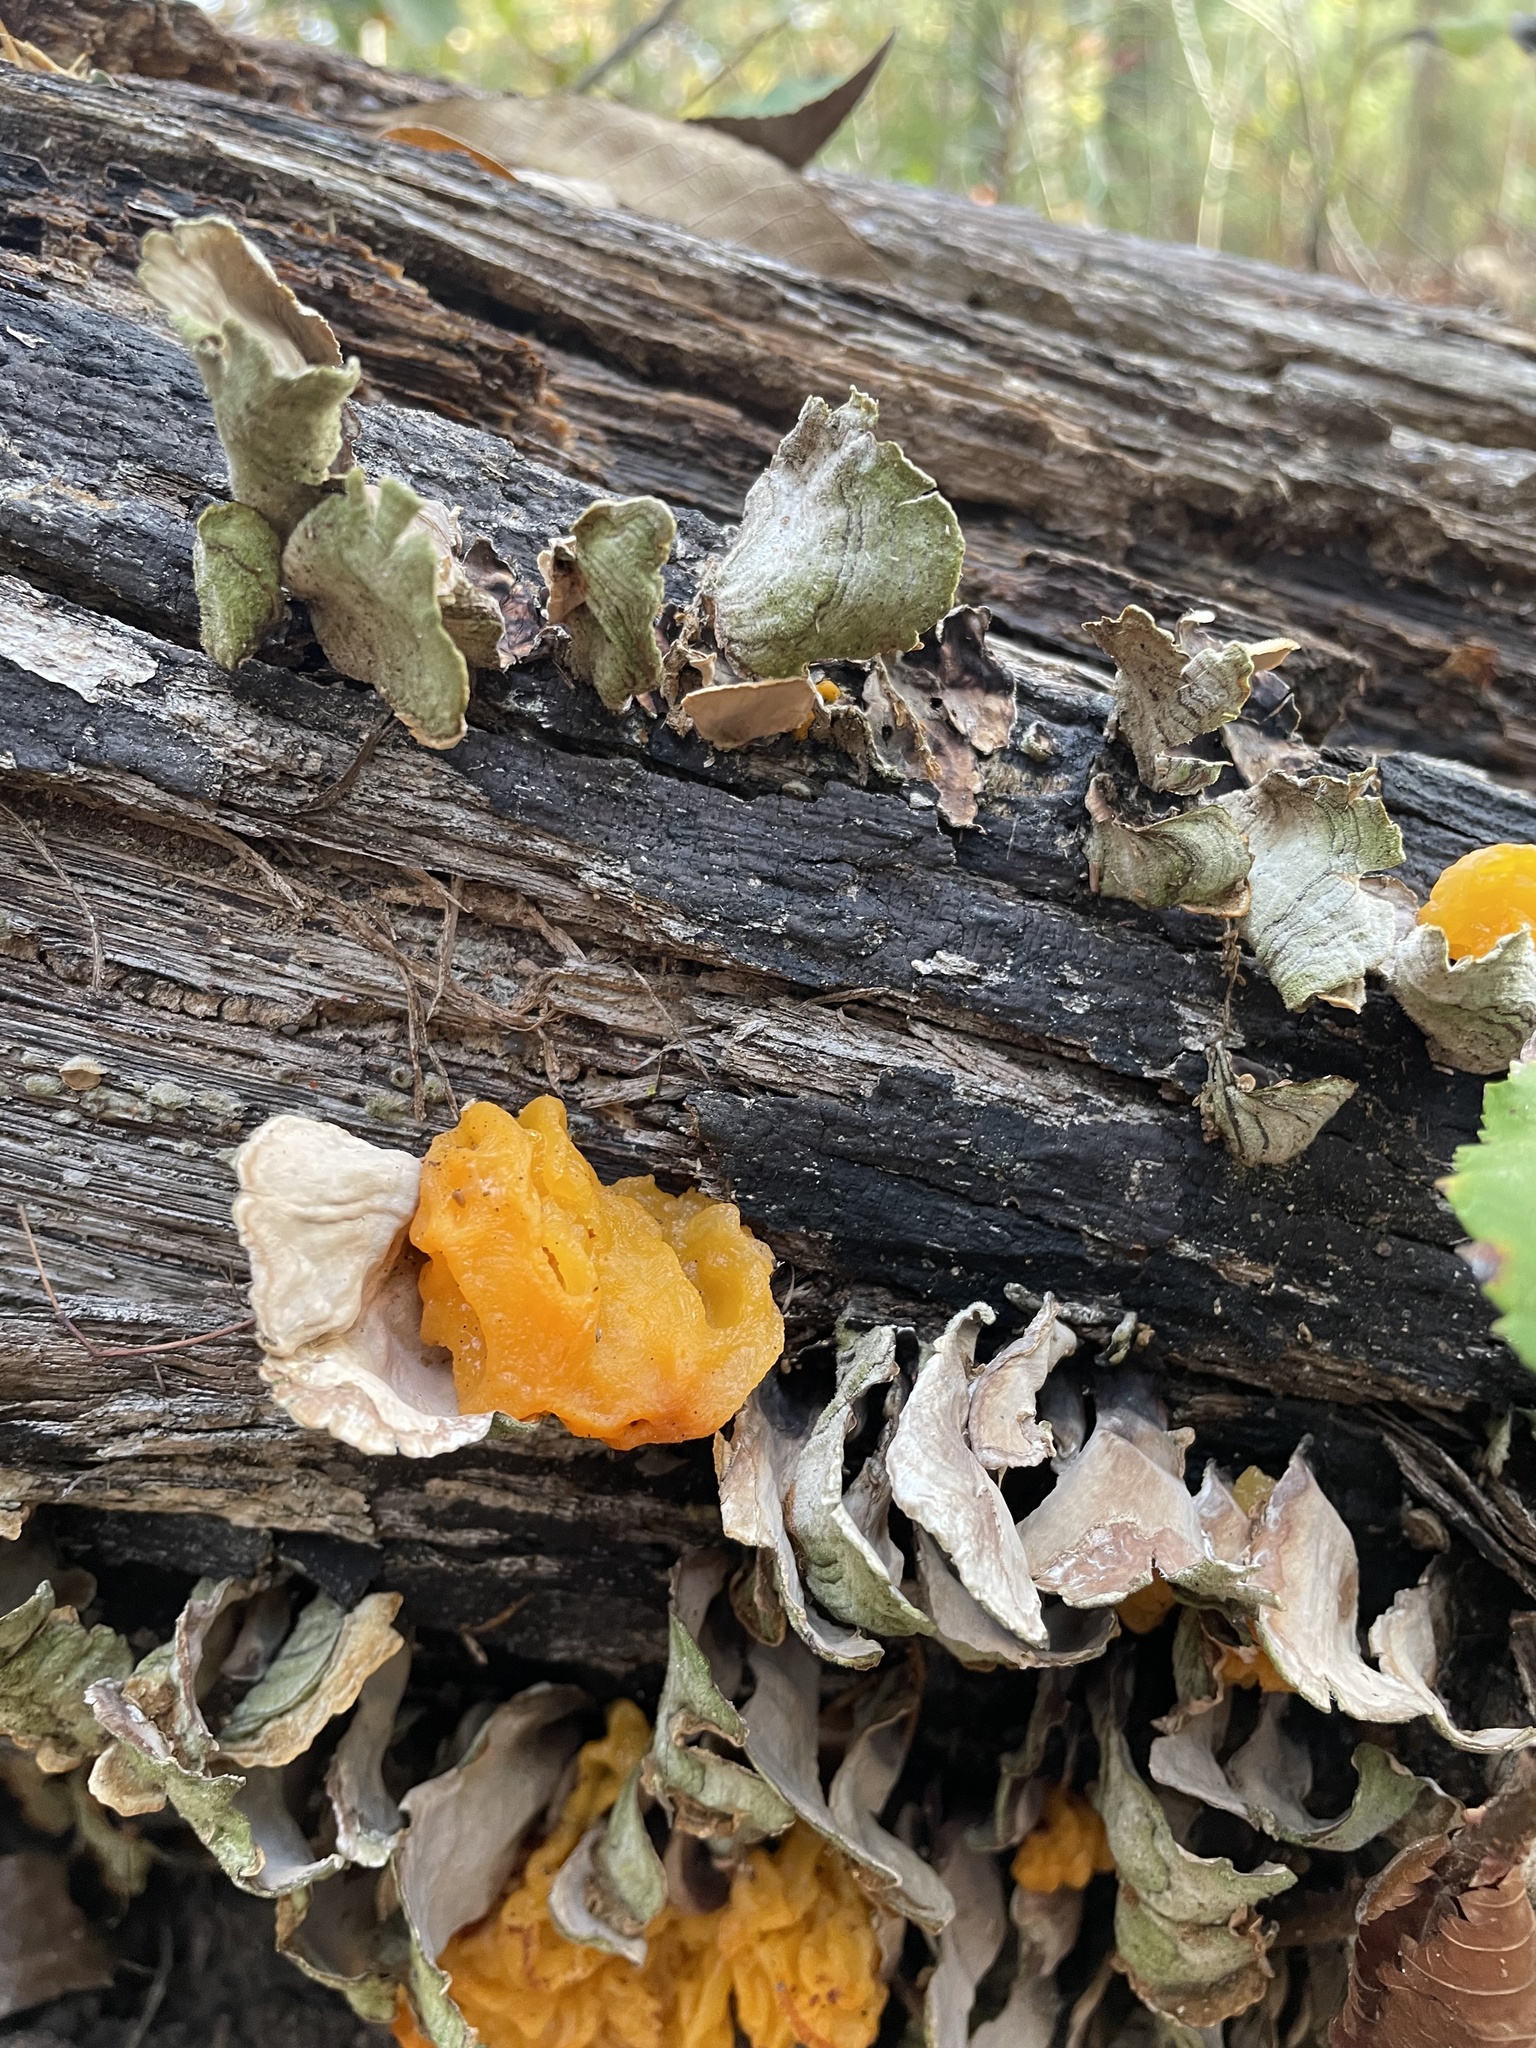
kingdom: Fungi
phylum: Basidiomycota
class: Tremellomycetes
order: Tremellales
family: Naemateliaceae
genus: Naematelia
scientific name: Naematelia aurantia
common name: Golden ear
